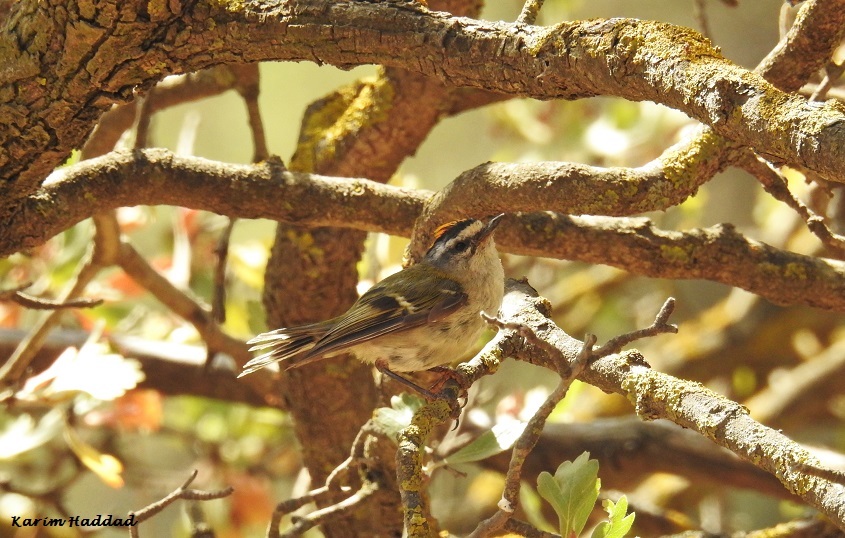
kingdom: Animalia
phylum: Chordata
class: Aves
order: Passeriformes
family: Regulidae
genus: Regulus
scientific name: Regulus ignicapilla
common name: Firecrest
